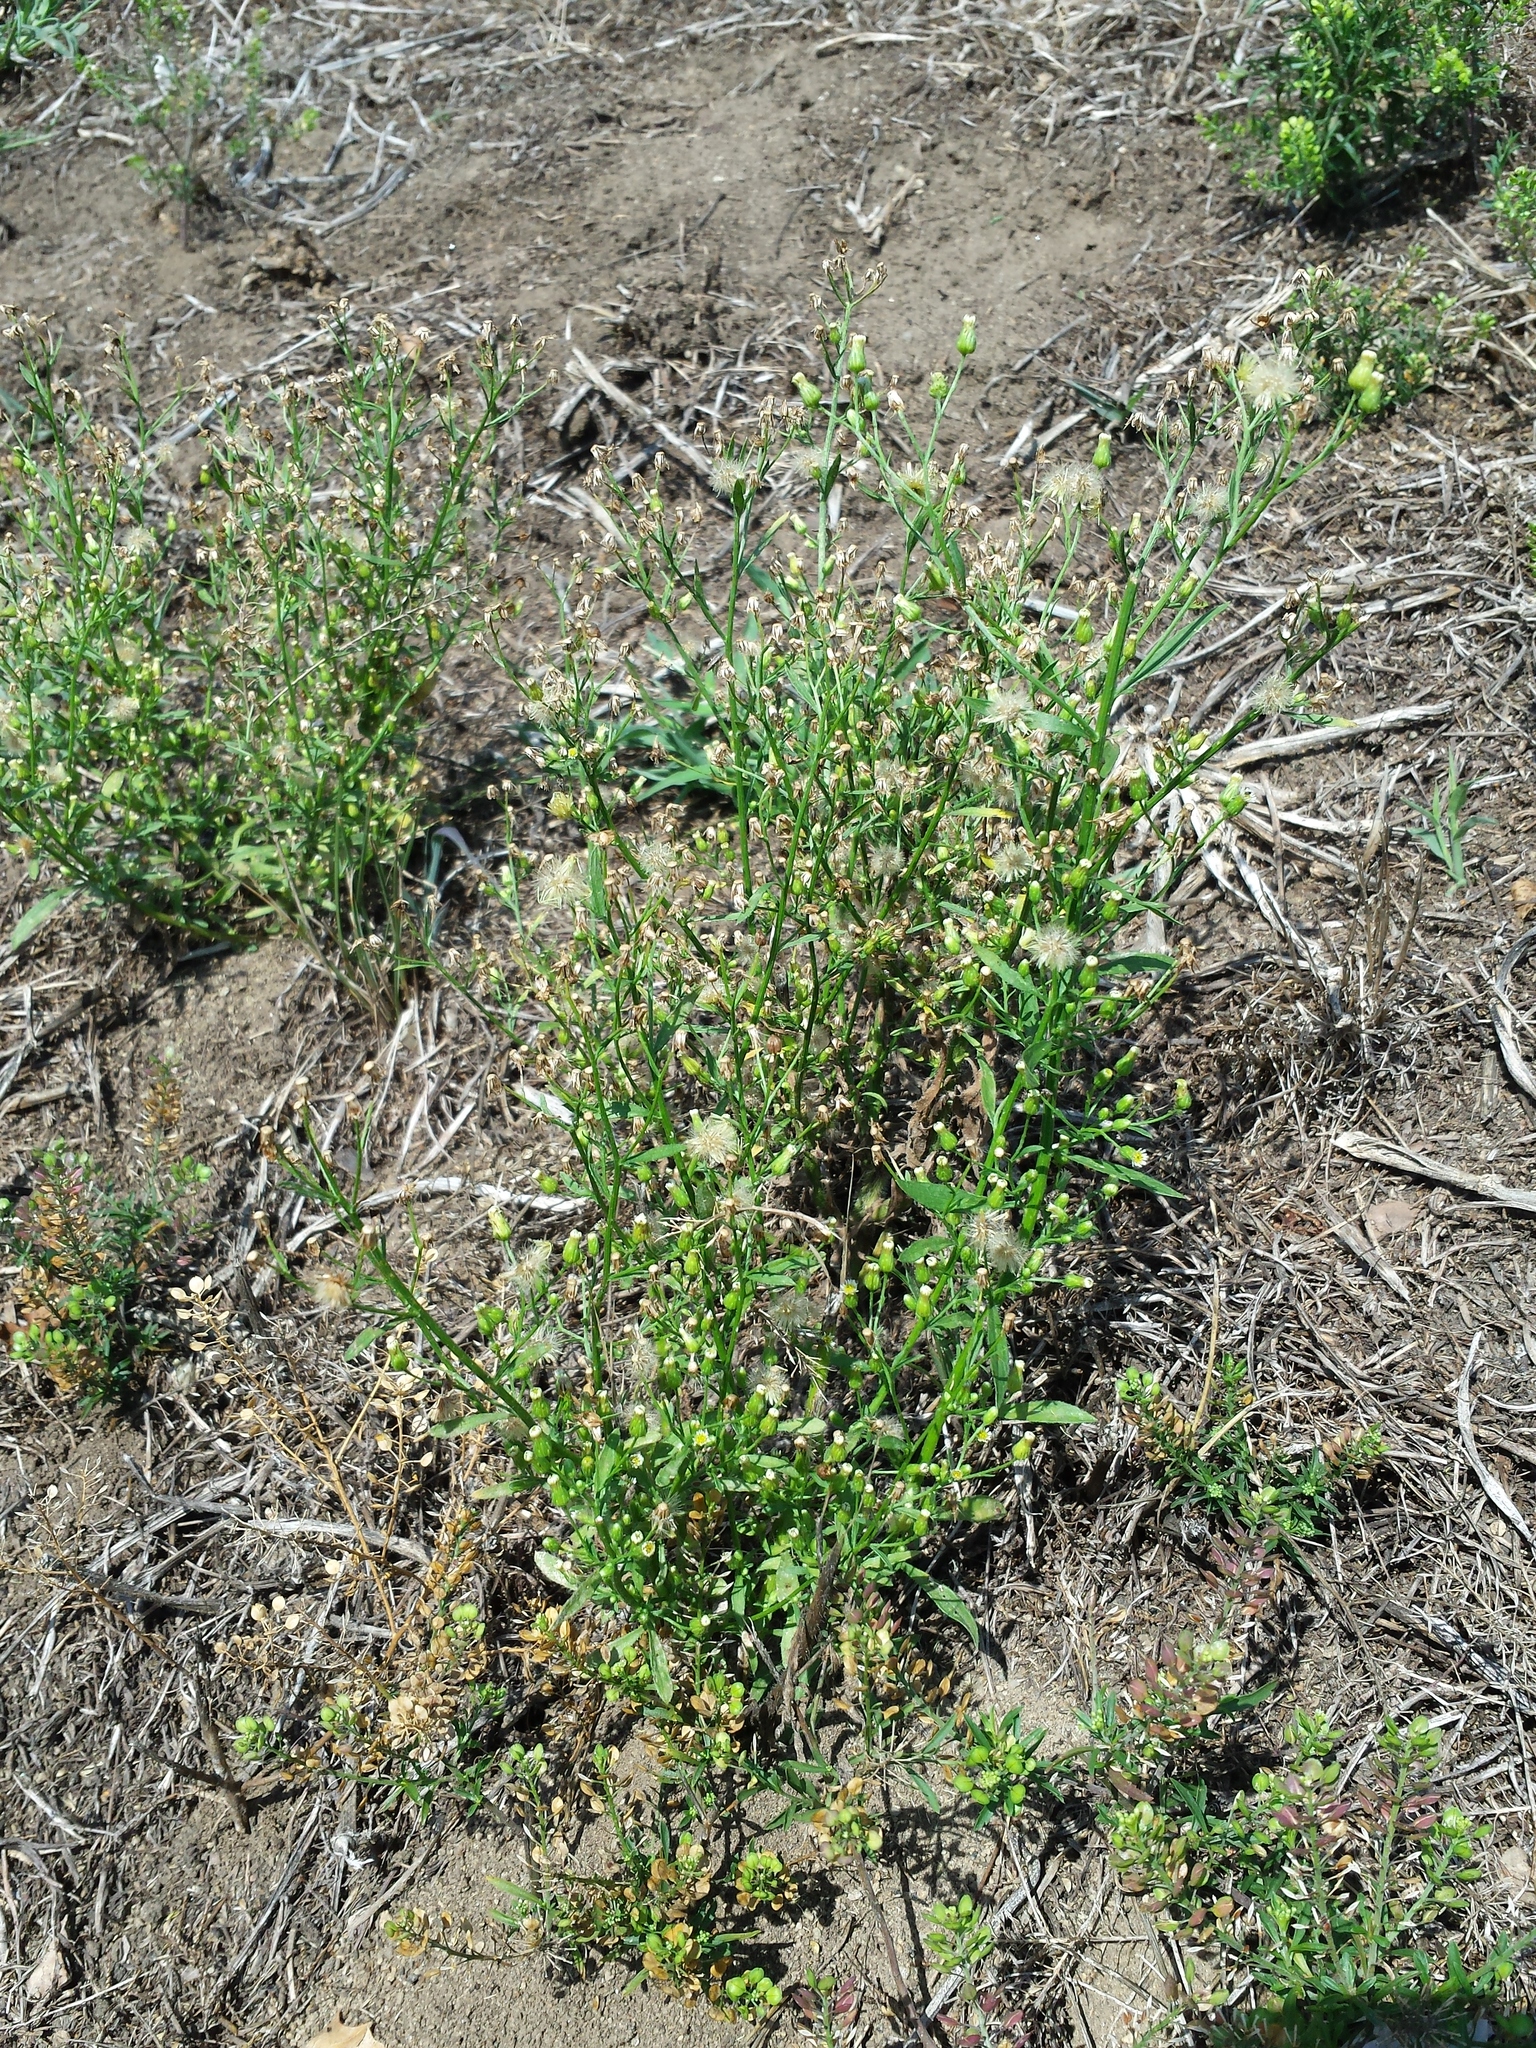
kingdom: Plantae
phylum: Tracheophyta
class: Magnoliopsida
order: Asterales
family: Asteraceae
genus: Erigeron
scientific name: Erigeron canadensis
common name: Canadian fleabane
